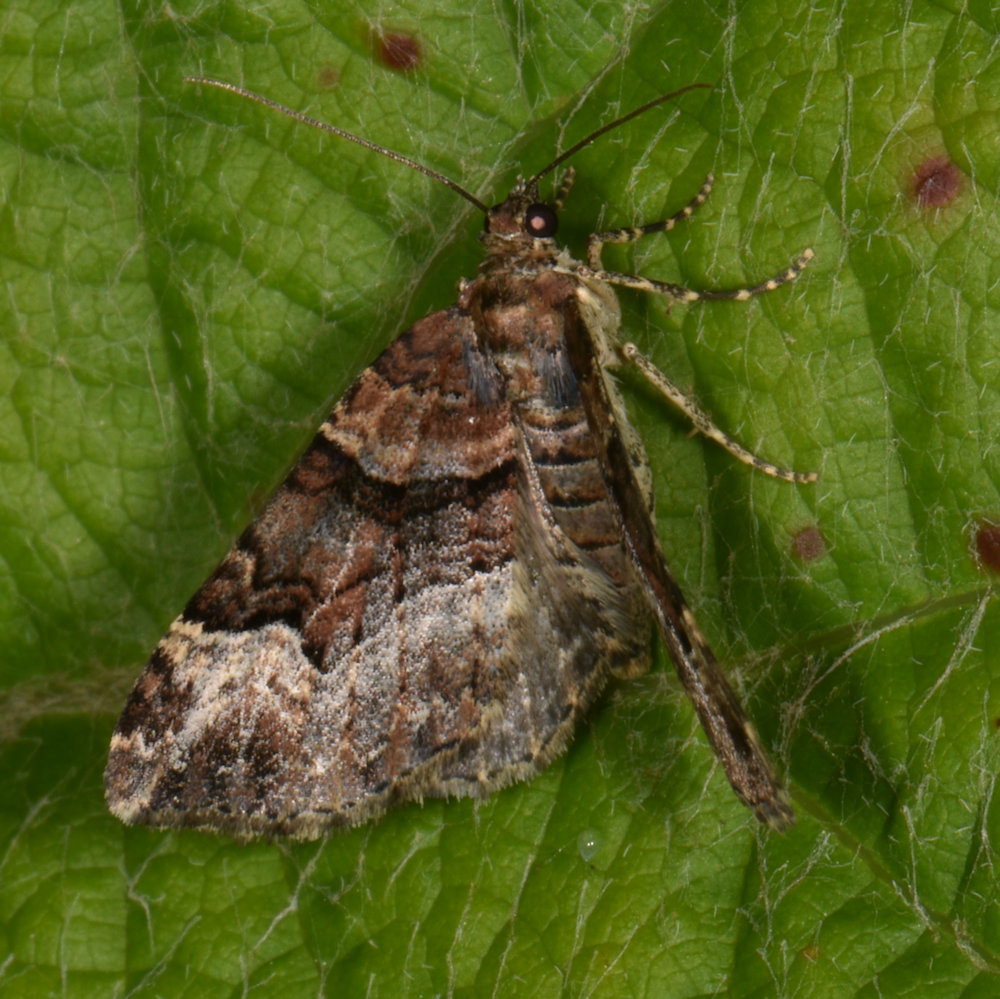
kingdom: Animalia
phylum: Arthropoda
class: Insecta
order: Lepidoptera
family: Geometridae
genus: Xanthorhoe
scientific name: Xanthorhoe lacustrata
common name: Toothed brown carpet
